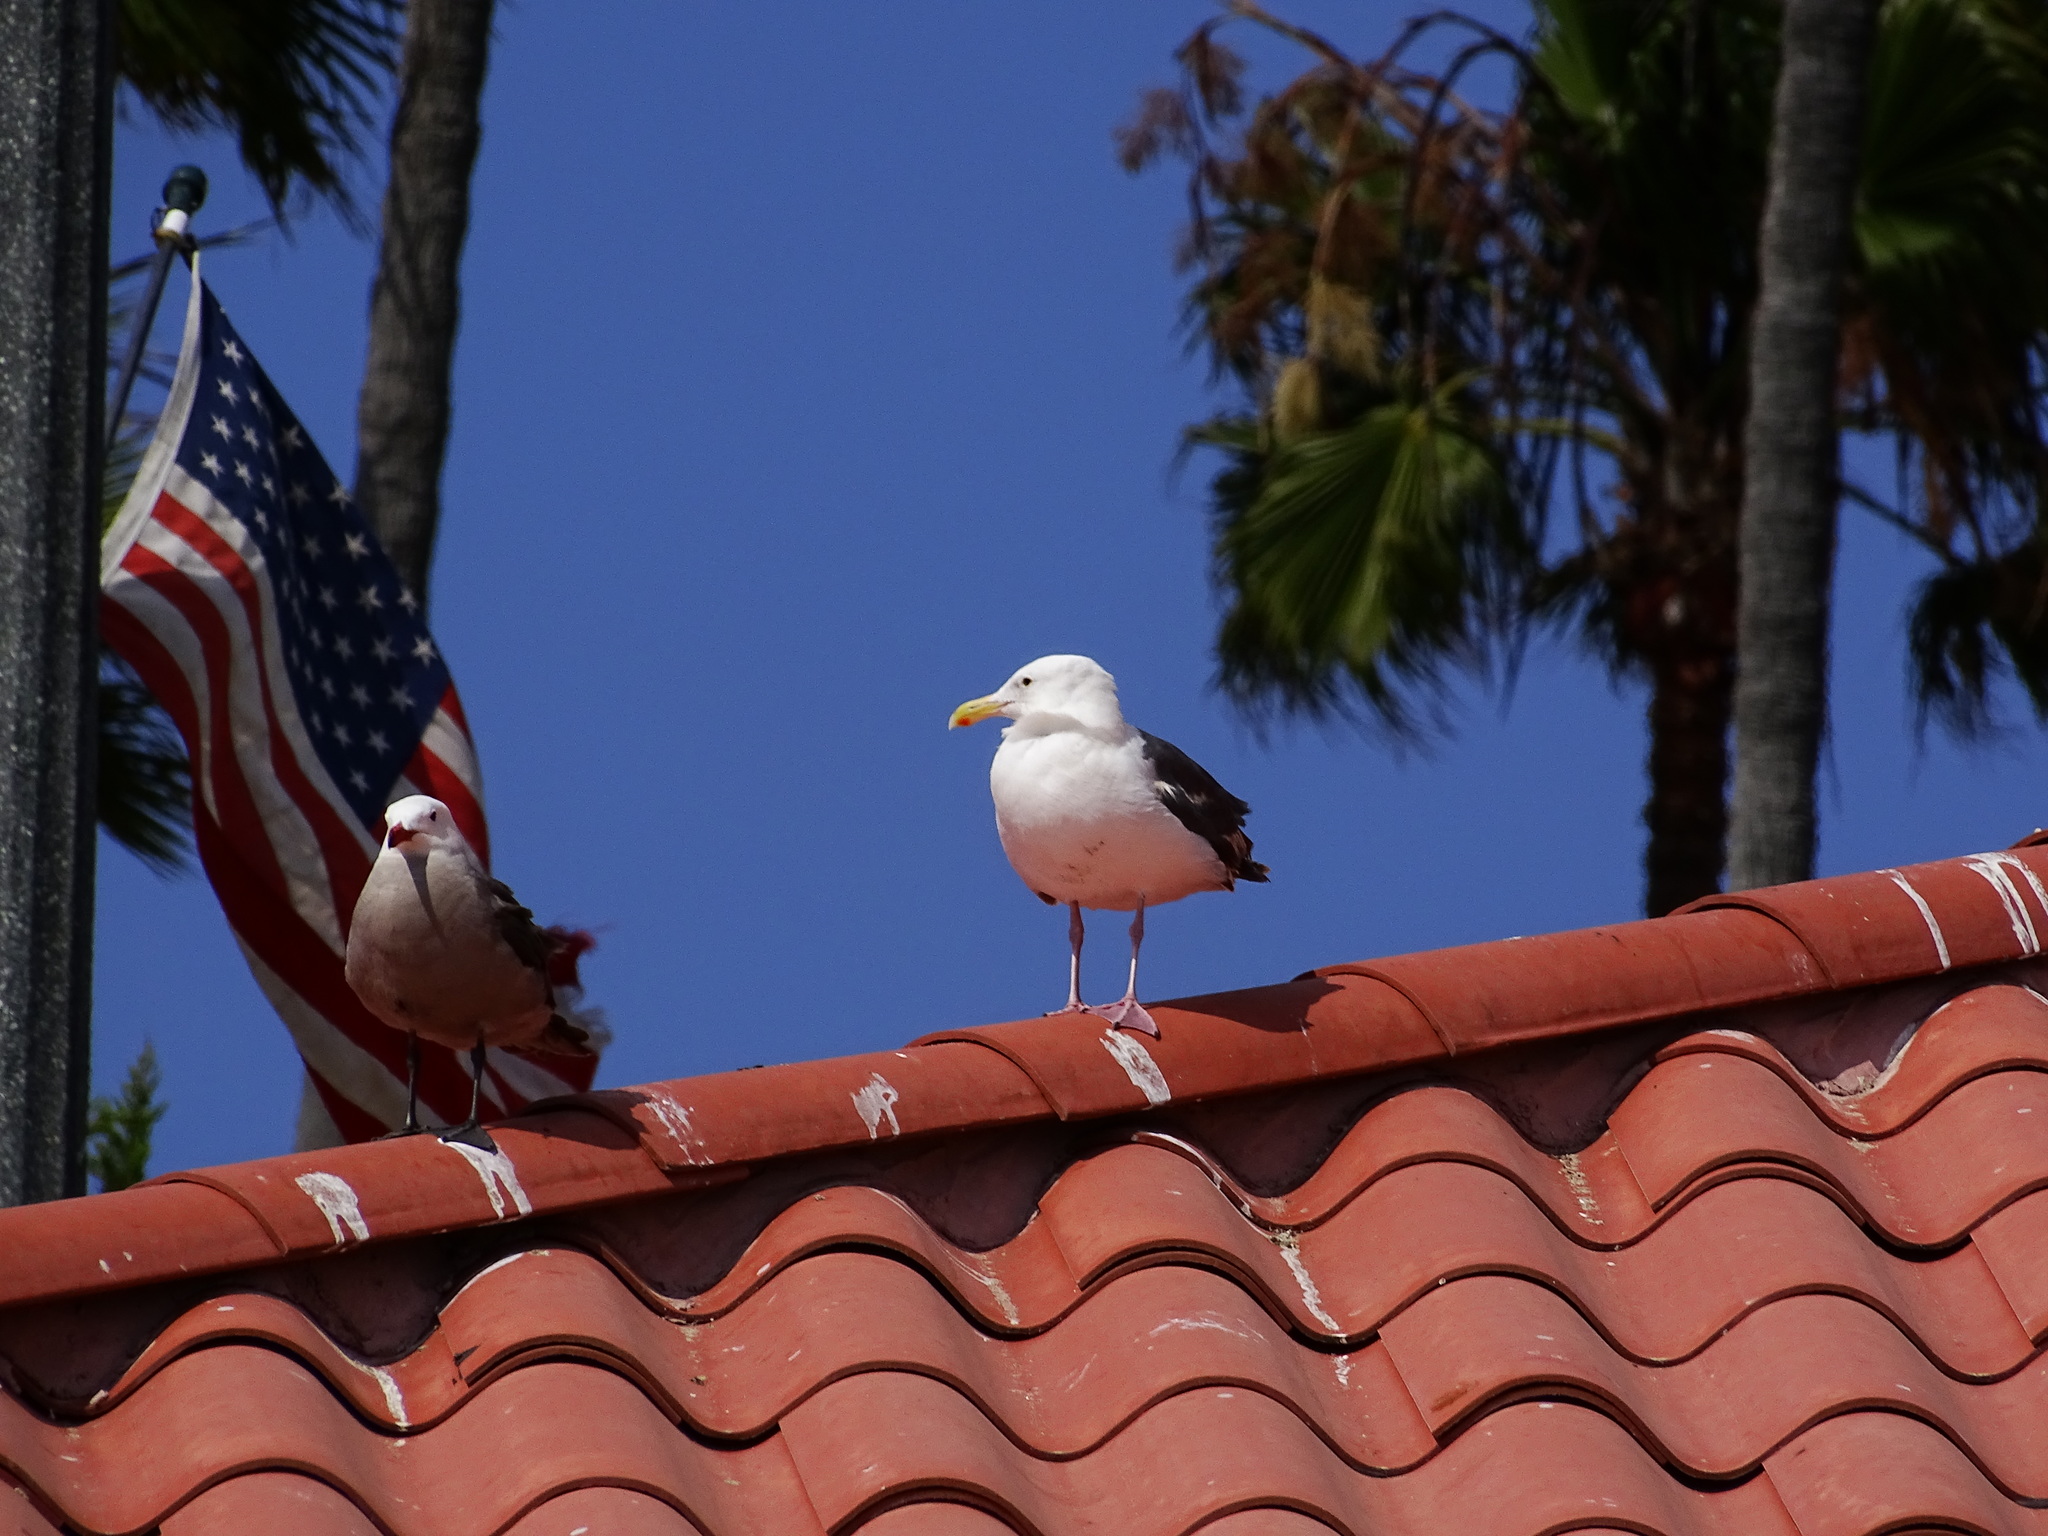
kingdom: Animalia
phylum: Chordata
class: Aves
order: Charadriiformes
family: Laridae
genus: Larus
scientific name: Larus occidentalis
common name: Western gull
